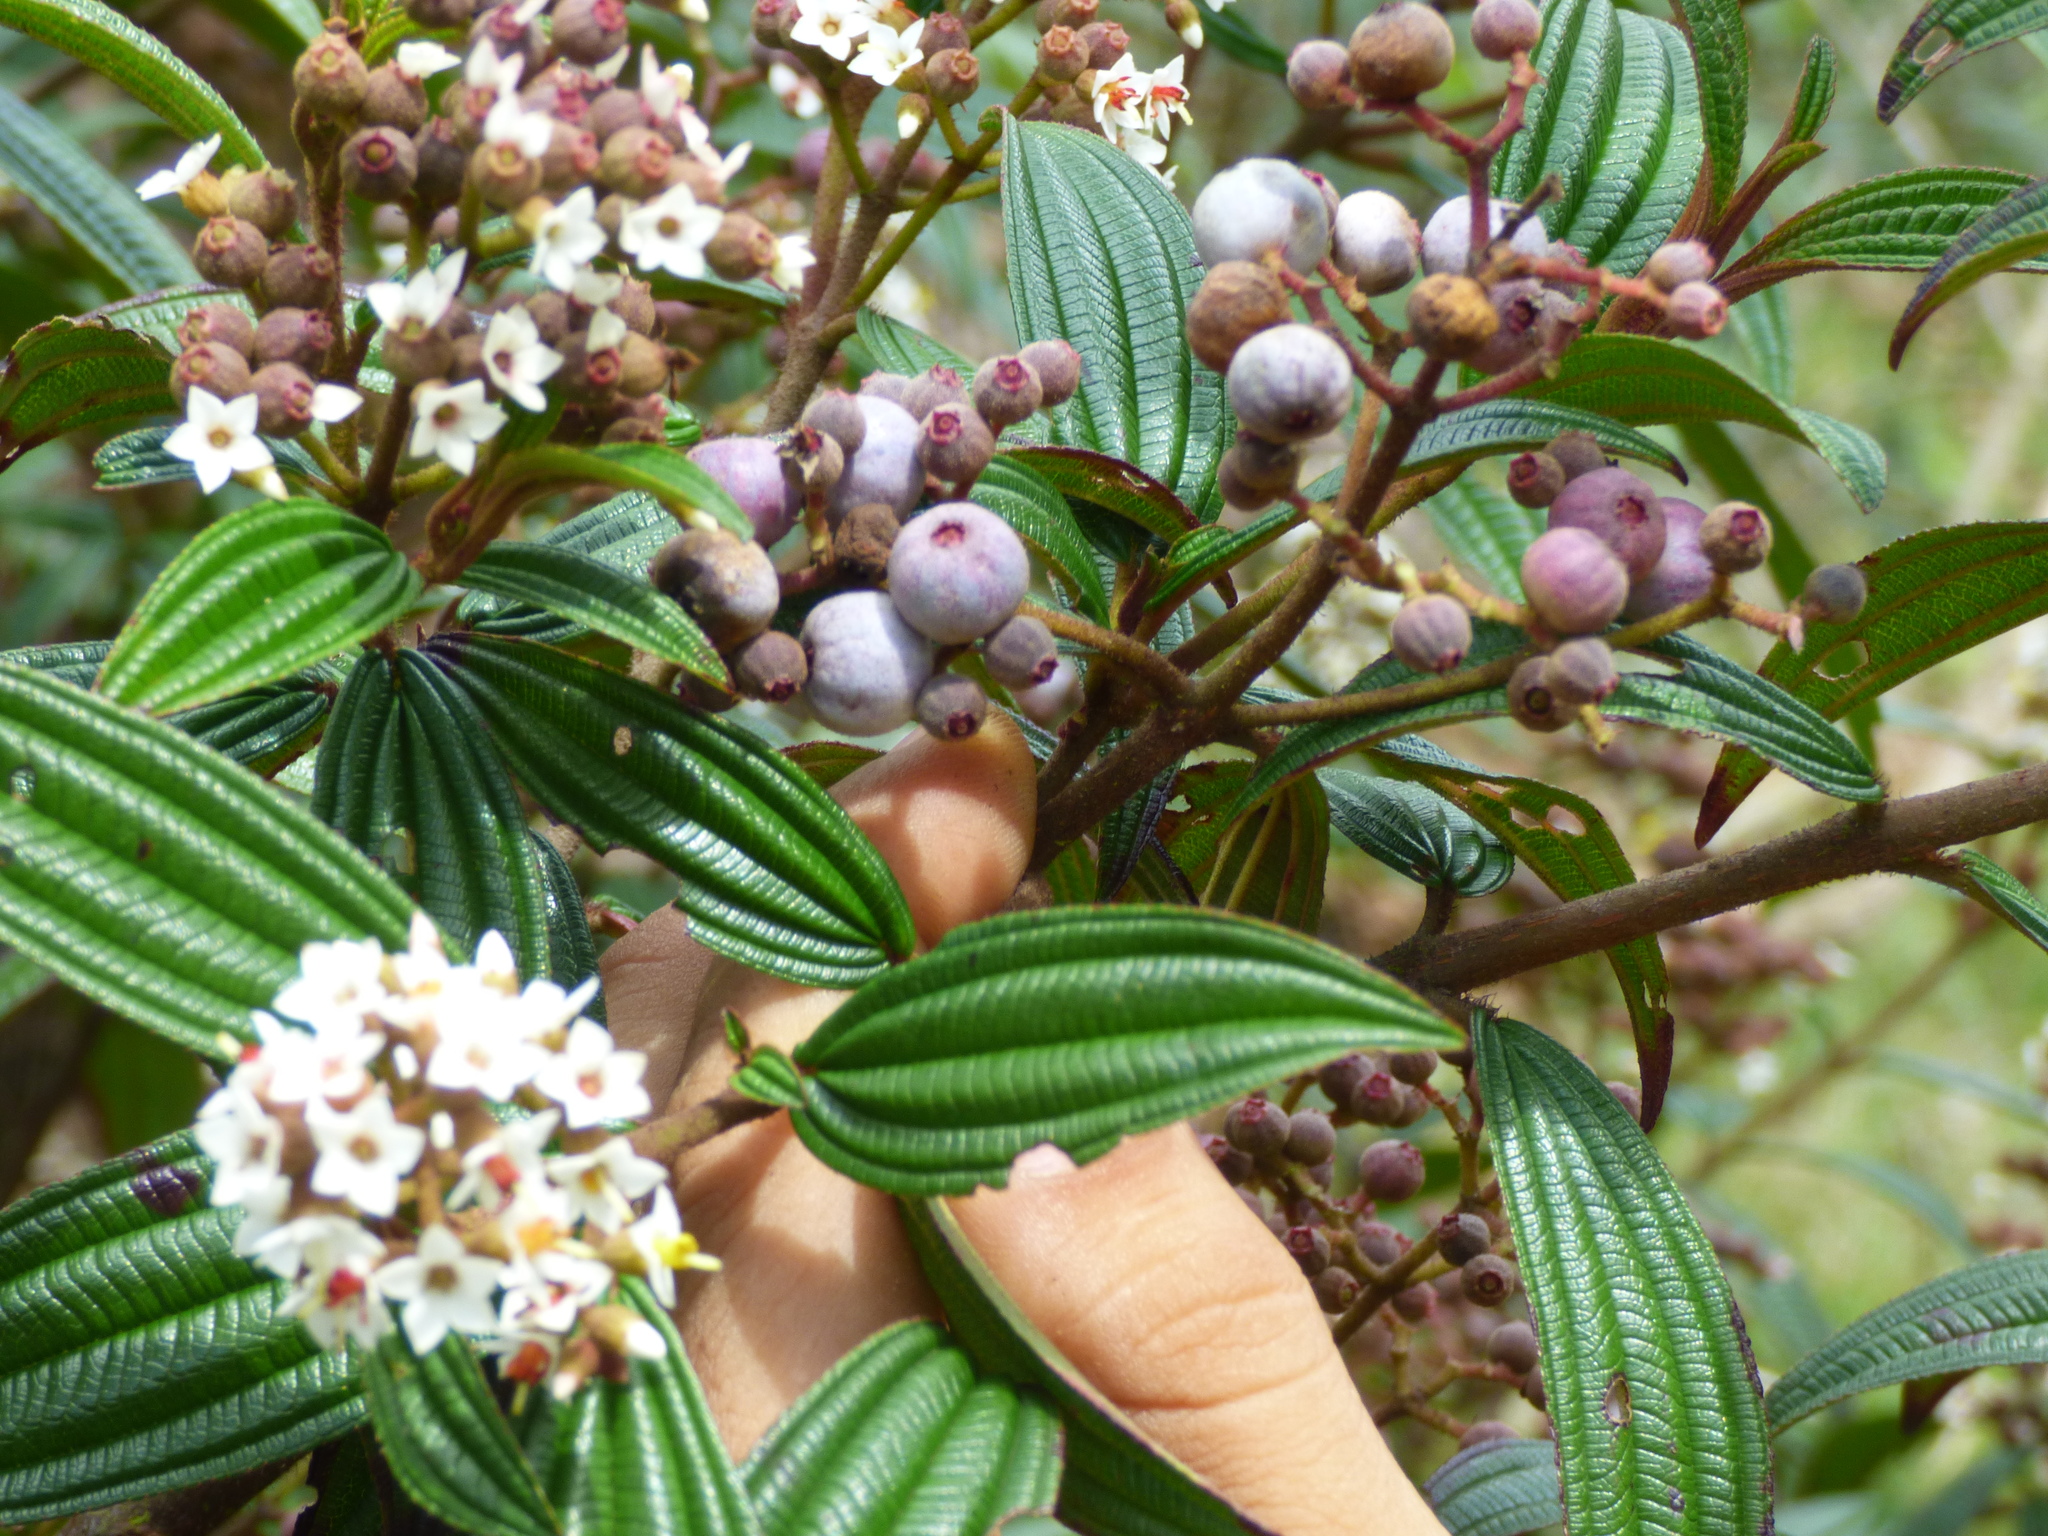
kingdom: Plantae
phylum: Tracheophyta
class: Magnoliopsida
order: Myrtales
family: Melastomataceae
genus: Miconia
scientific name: Miconia nervosissima
